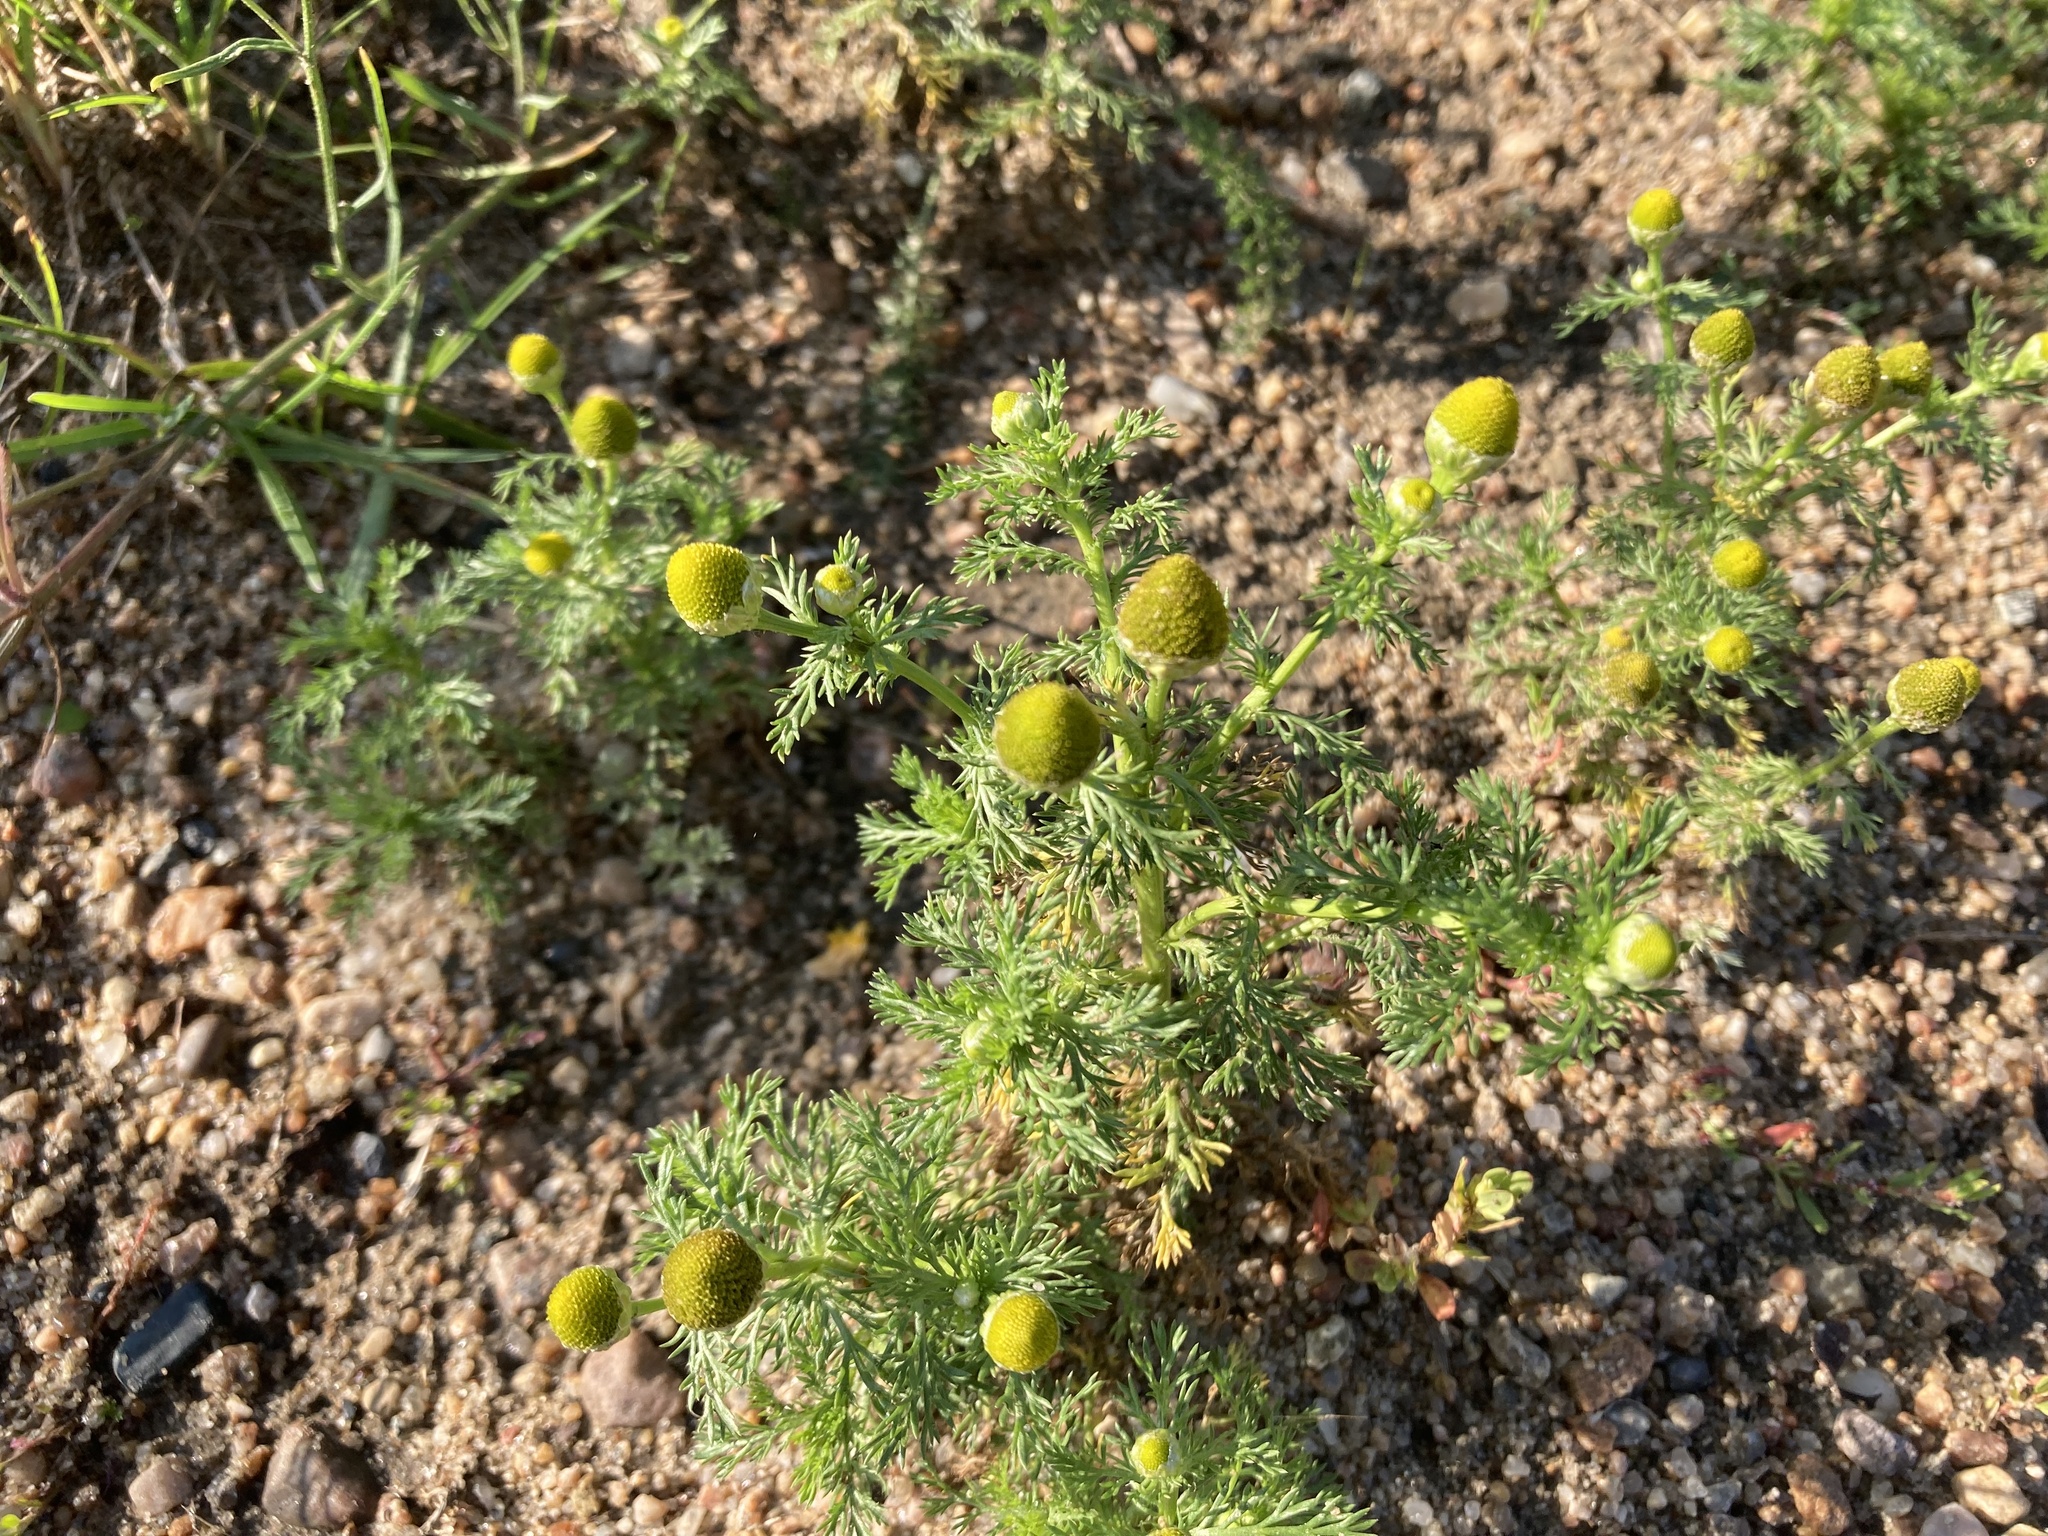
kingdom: Plantae
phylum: Tracheophyta
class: Magnoliopsida
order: Asterales
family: Asteraceae
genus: Matricaria
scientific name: Matricaria discoidea
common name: Disc mayweed
